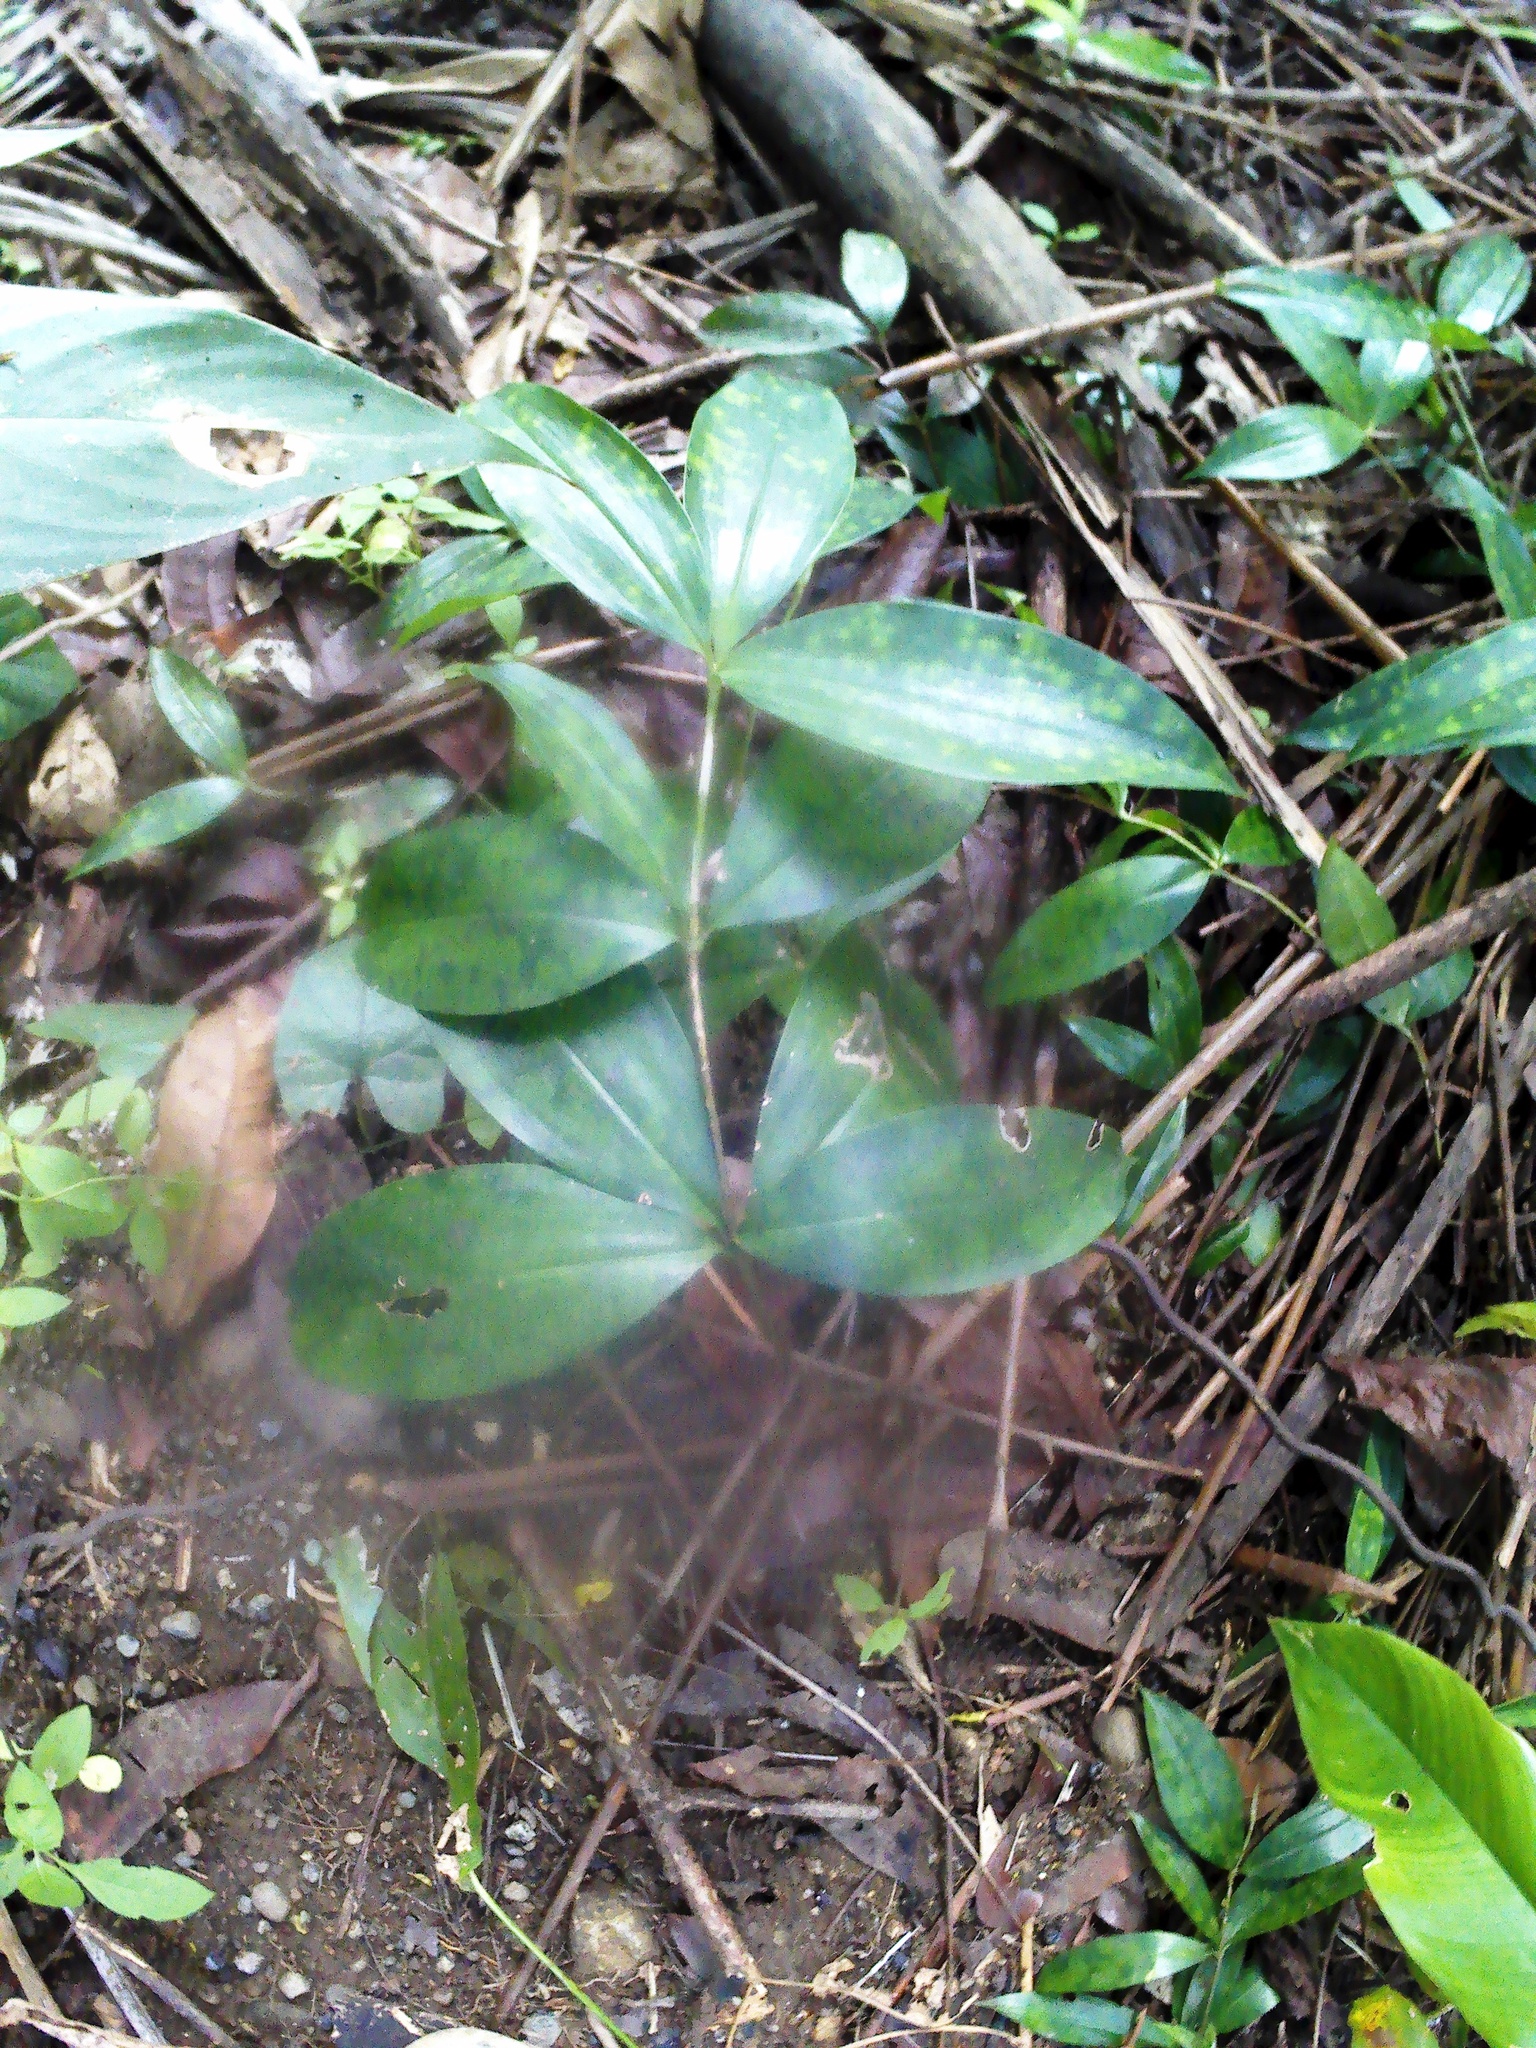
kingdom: Plantae
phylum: Tracheophyta
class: Liliopsida
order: Asparagales
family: Asparagaceae
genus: Dracaena
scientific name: Dracaena surculosa
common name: Spotted dracaena
